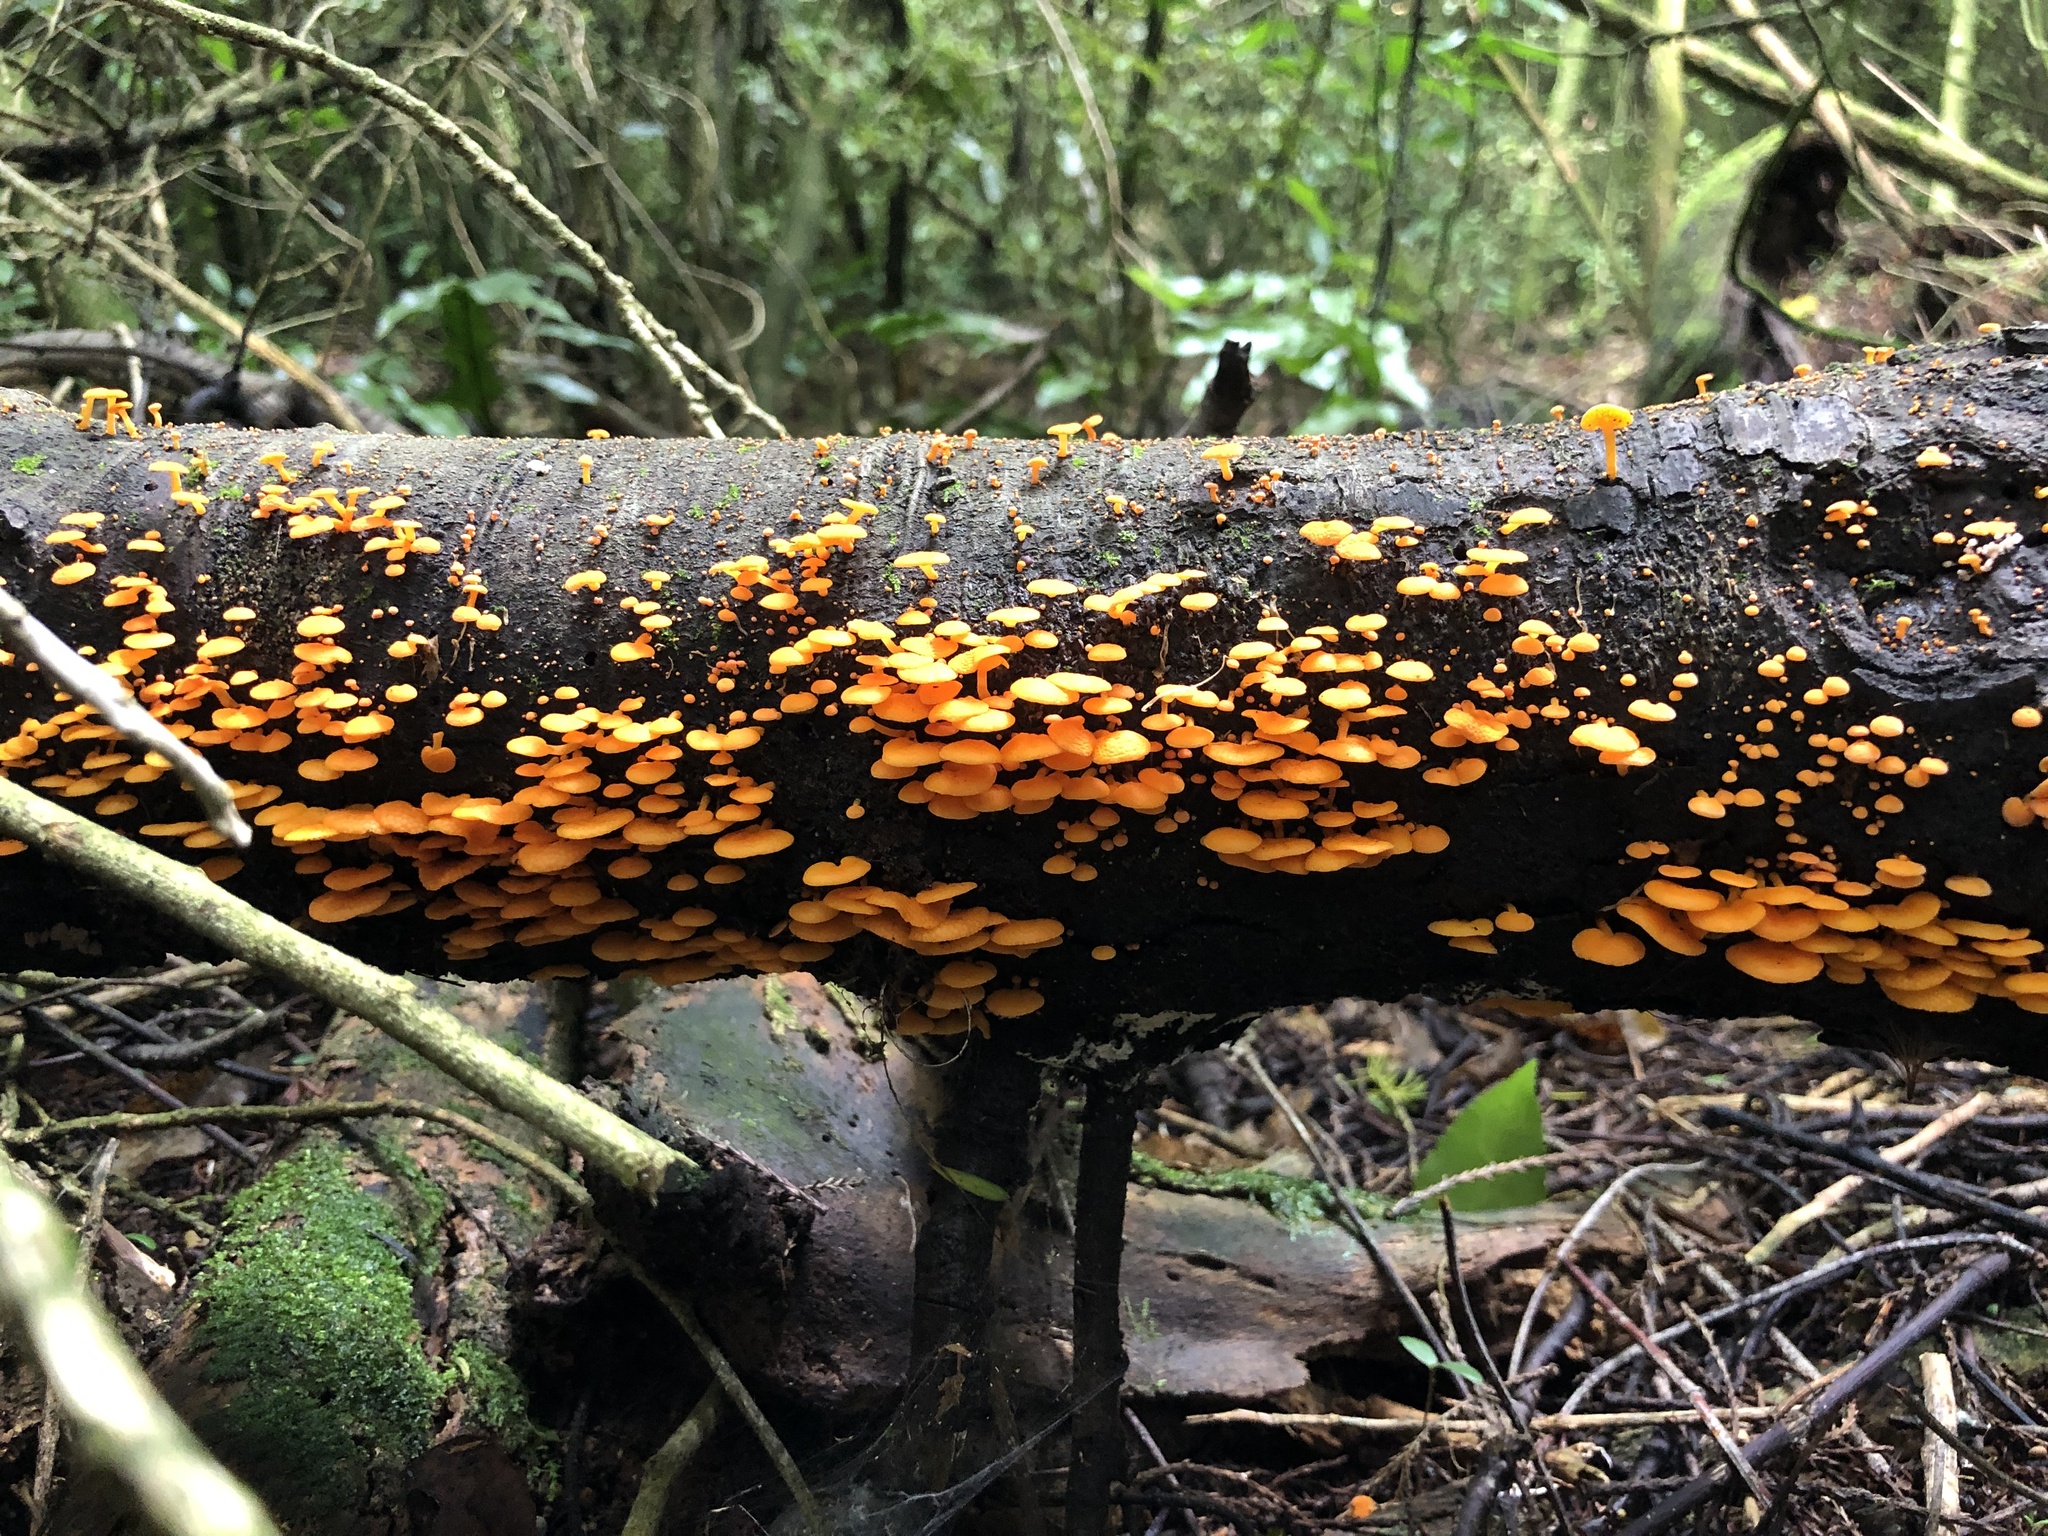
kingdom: Fungi
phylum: Basidiomycota
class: Agaricomycetes
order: Agaricales
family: Mycenaceae
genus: Favolaschia
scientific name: Favolaschia claudopus
